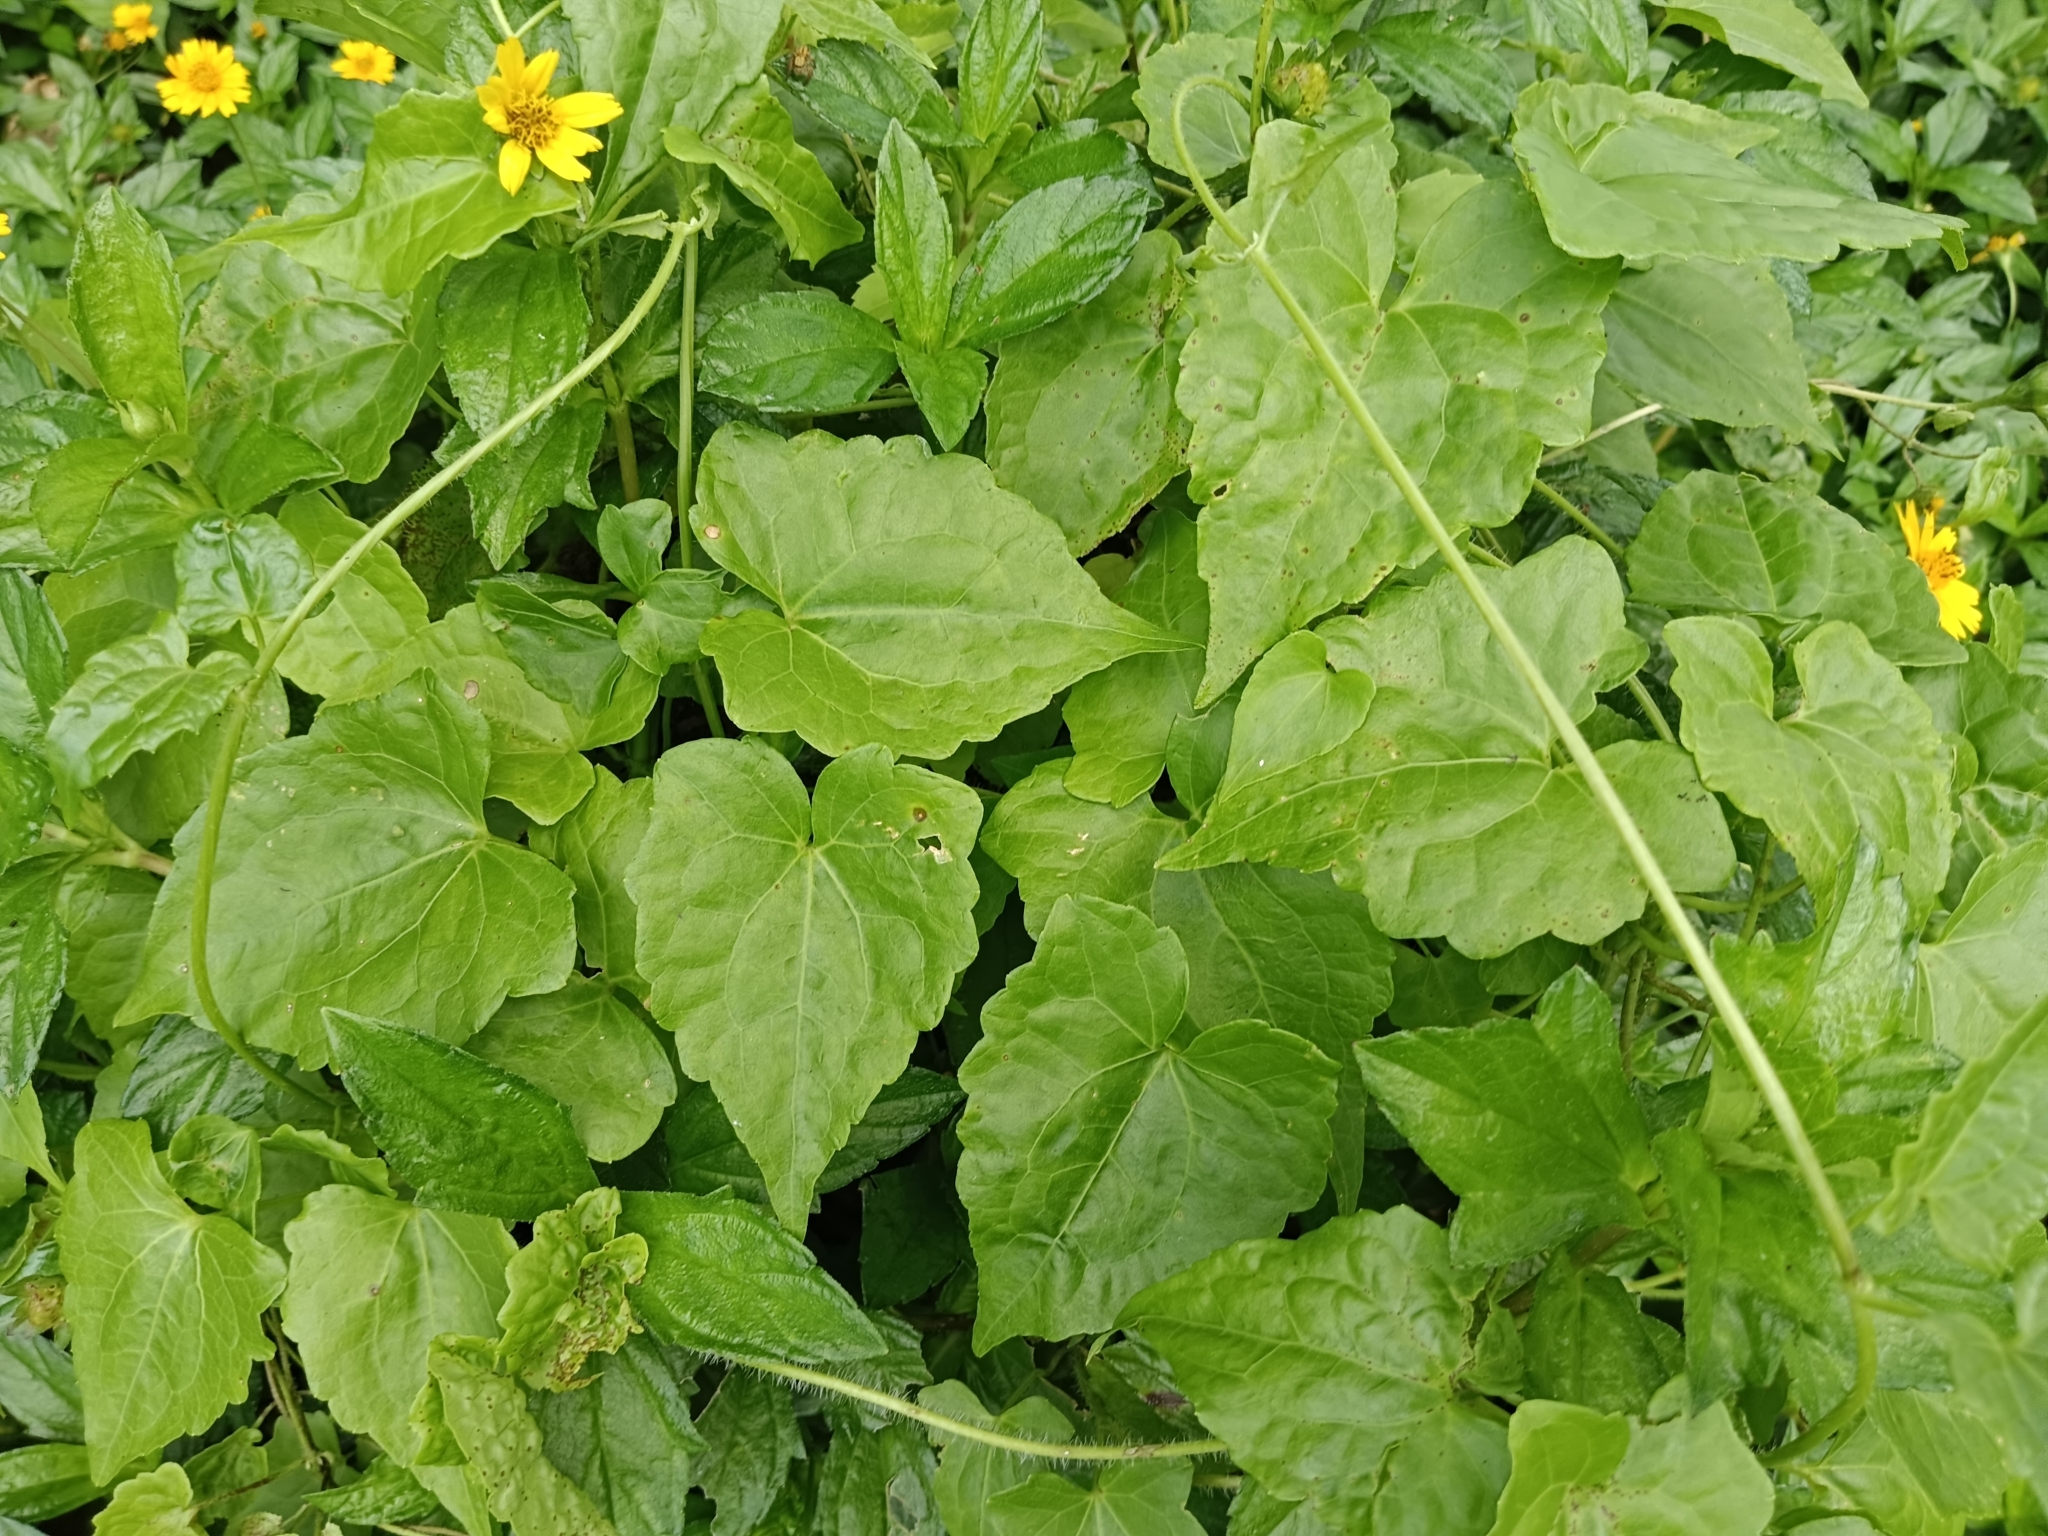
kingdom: Plantae
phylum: Tracheophyta
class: Magnoliopsida
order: Asterales
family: Asteraceae
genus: Mikania
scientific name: Mikania micrantha
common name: Mile-a-minute
